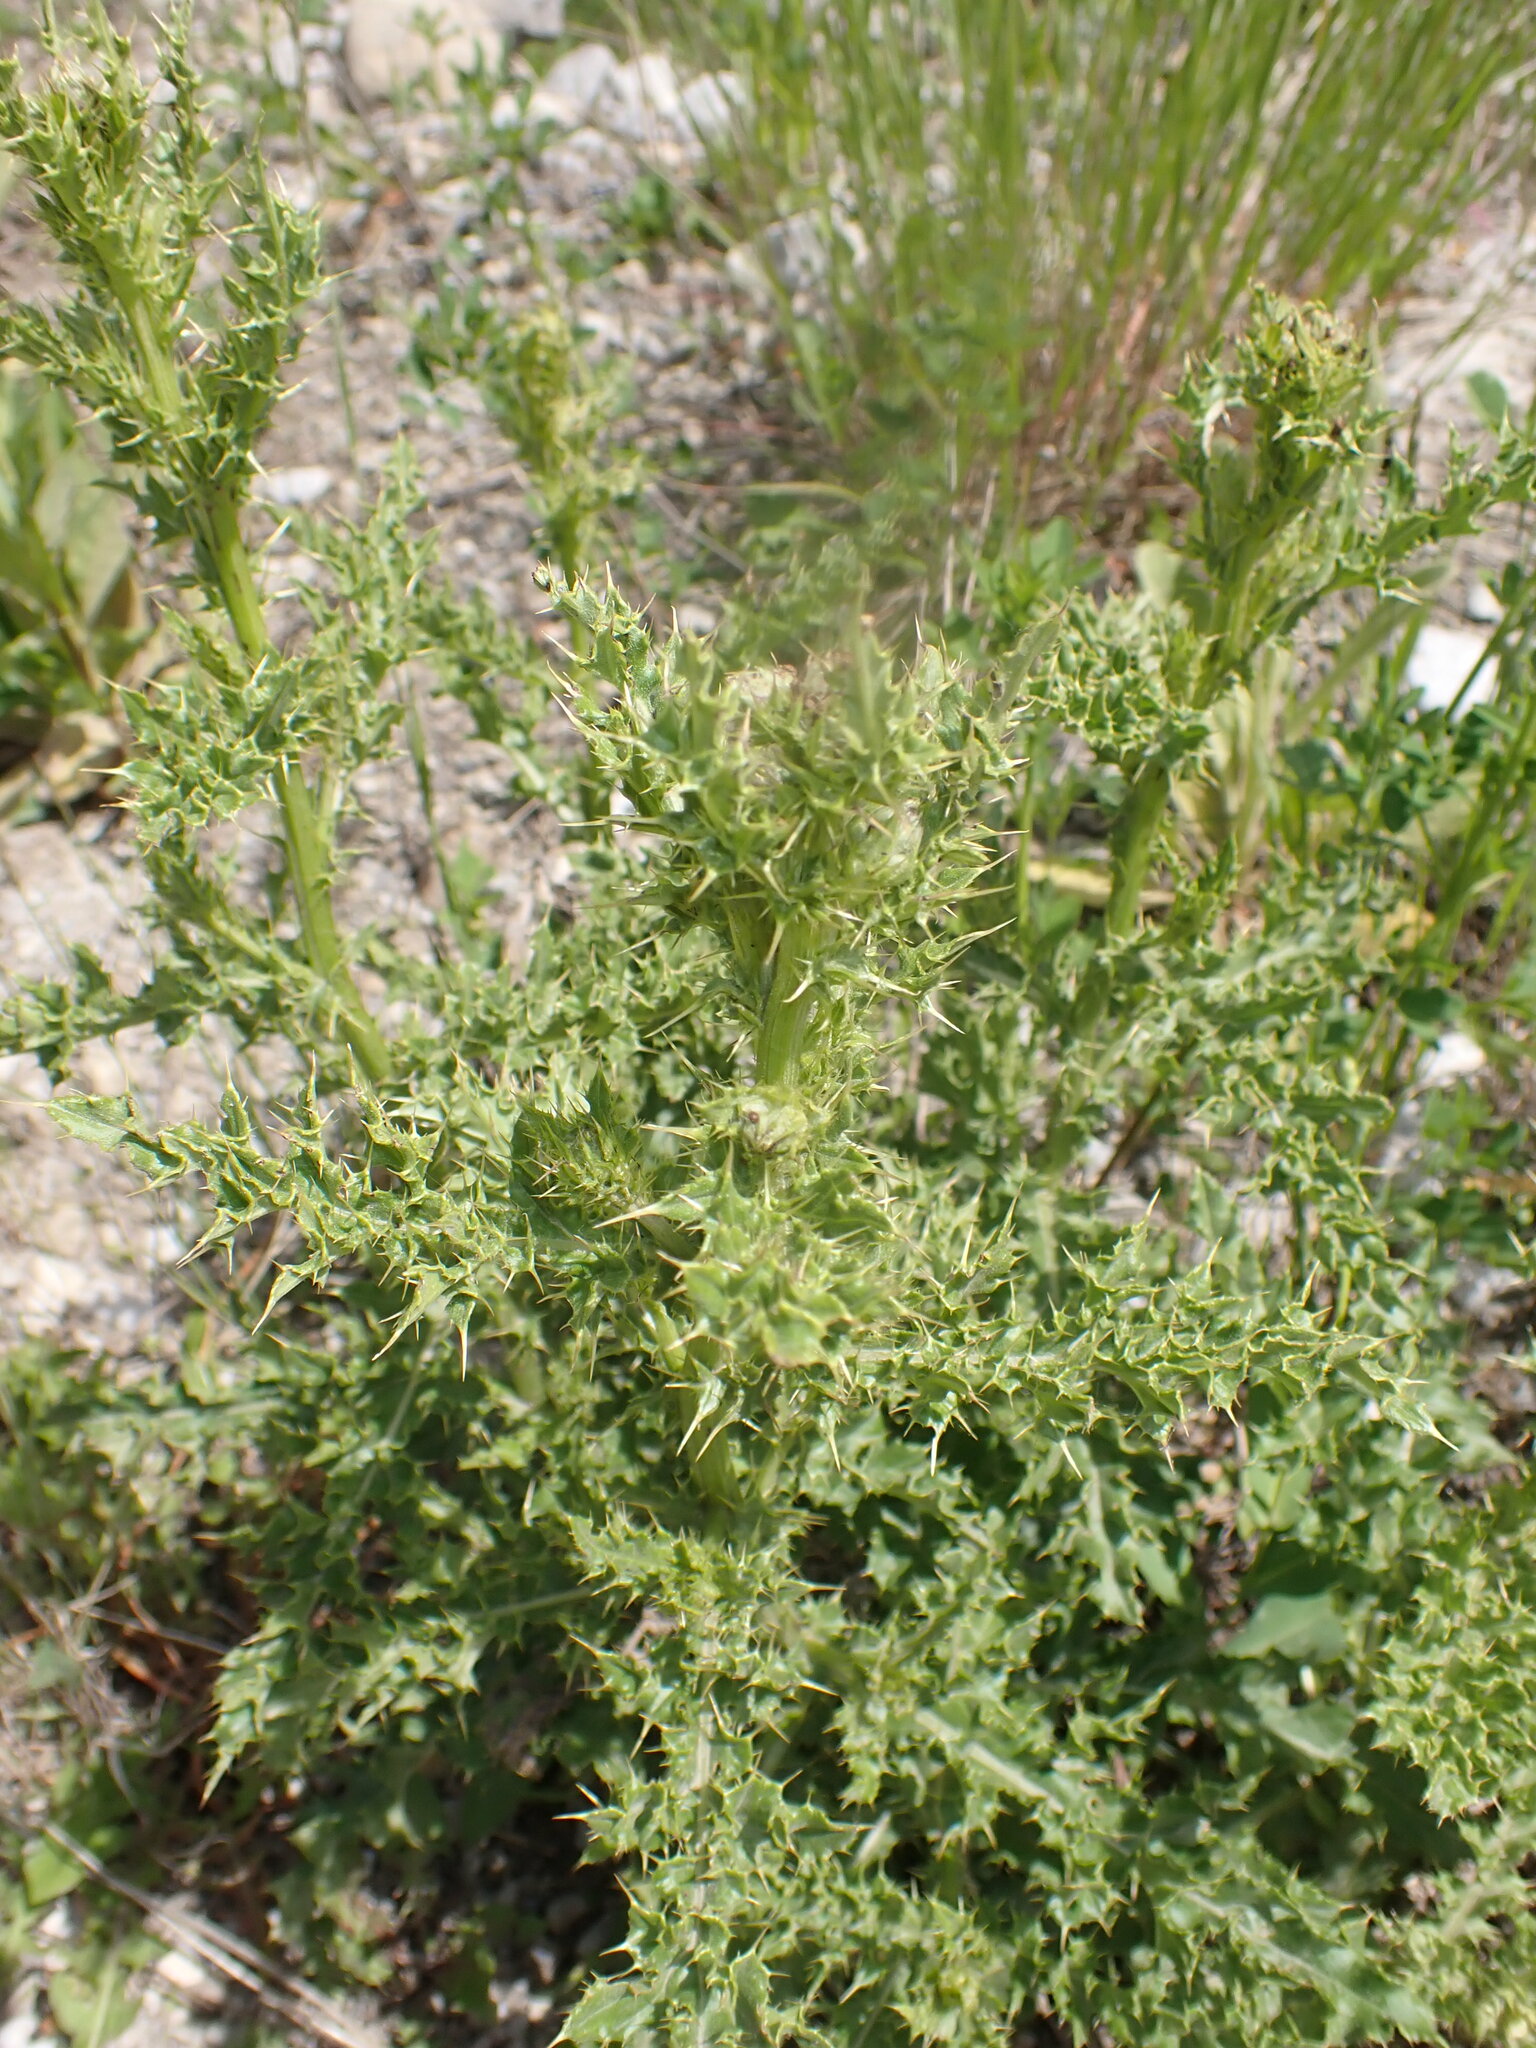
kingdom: Plantae
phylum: Tracheophyta
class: Magnoliopsida
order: Asterales
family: Asteraceae
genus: Cirsium
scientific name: Cirsium arvense
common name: Creeping thistle
